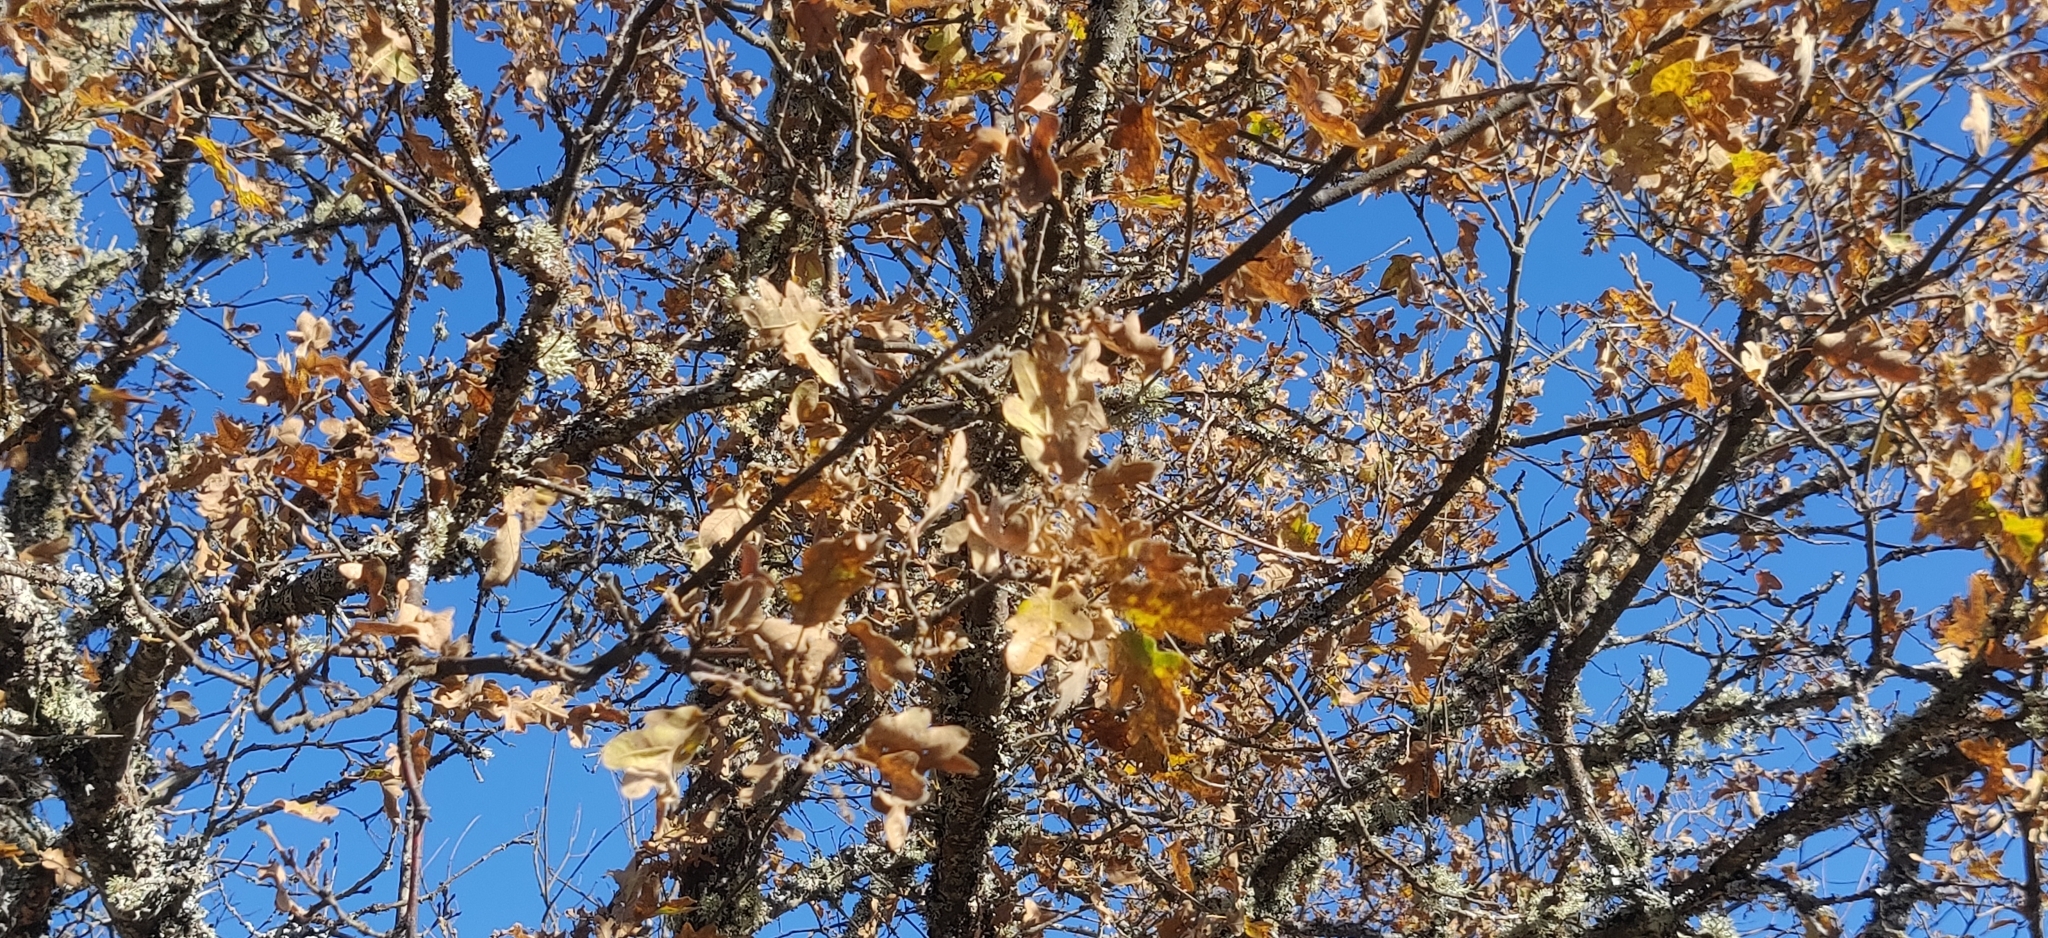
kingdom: Plantae
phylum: Tracheophyta
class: Magnoliopsida
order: Fagales
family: Fagaceae
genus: Quercus
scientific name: Quercus pyrenaica
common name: Pyrenean oak
